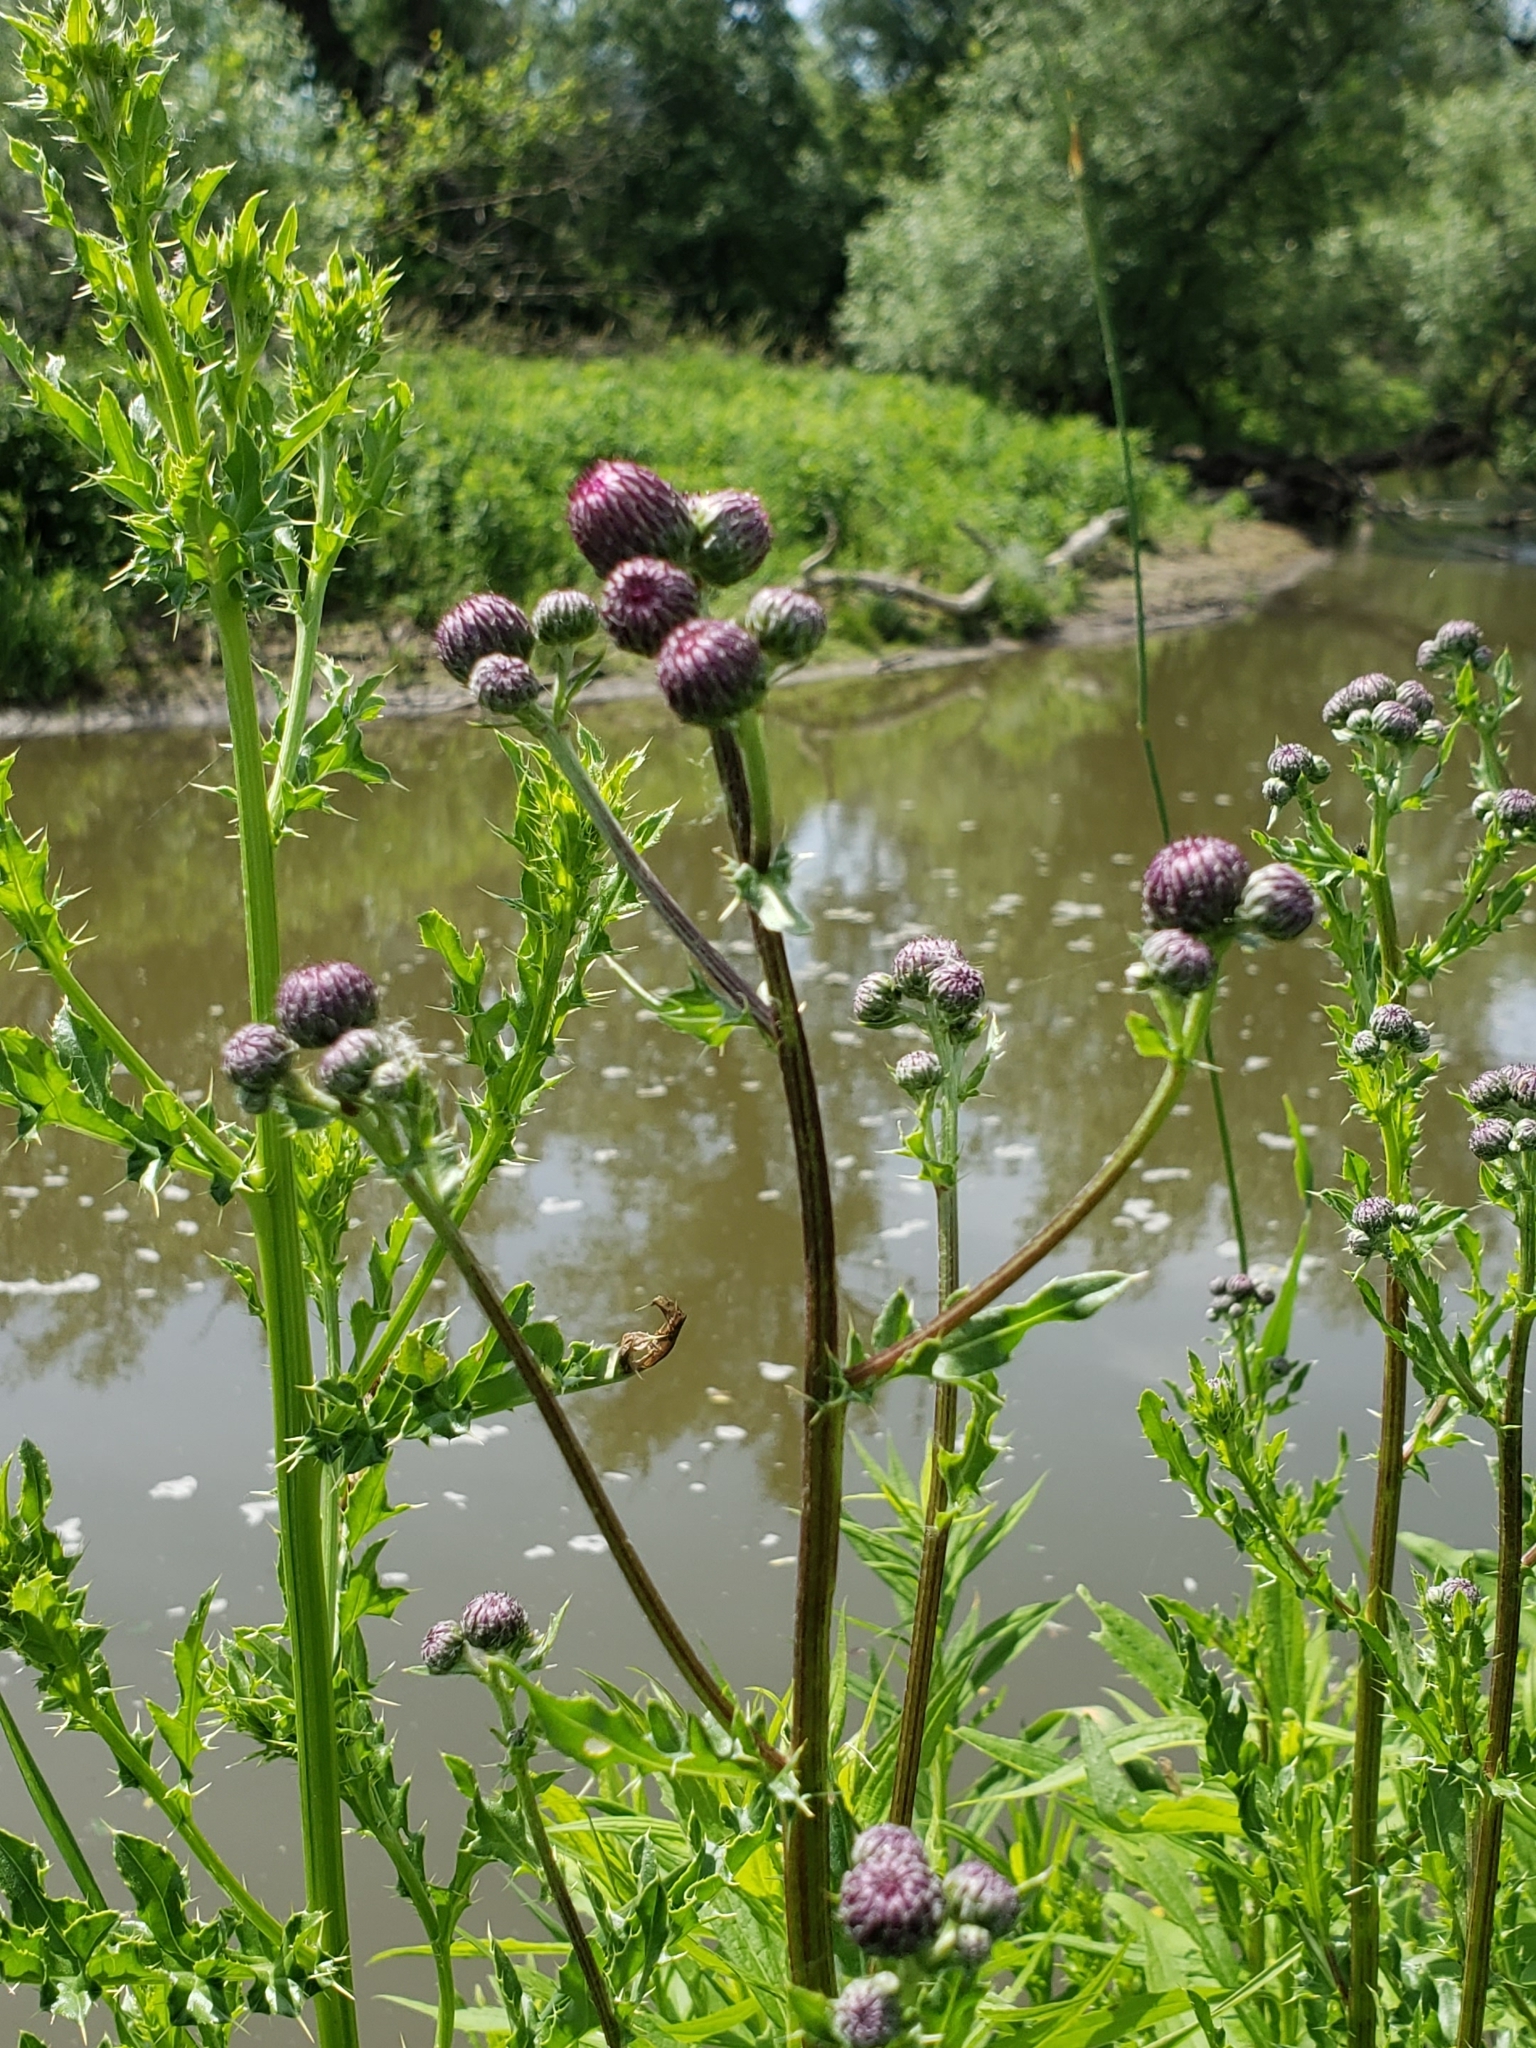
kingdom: Plantae
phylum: Tracheophyta
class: Magnoliopsida
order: Asterales
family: Asteraceae
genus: Cirsium
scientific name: Cirsium arvense
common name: Creeping thistle
